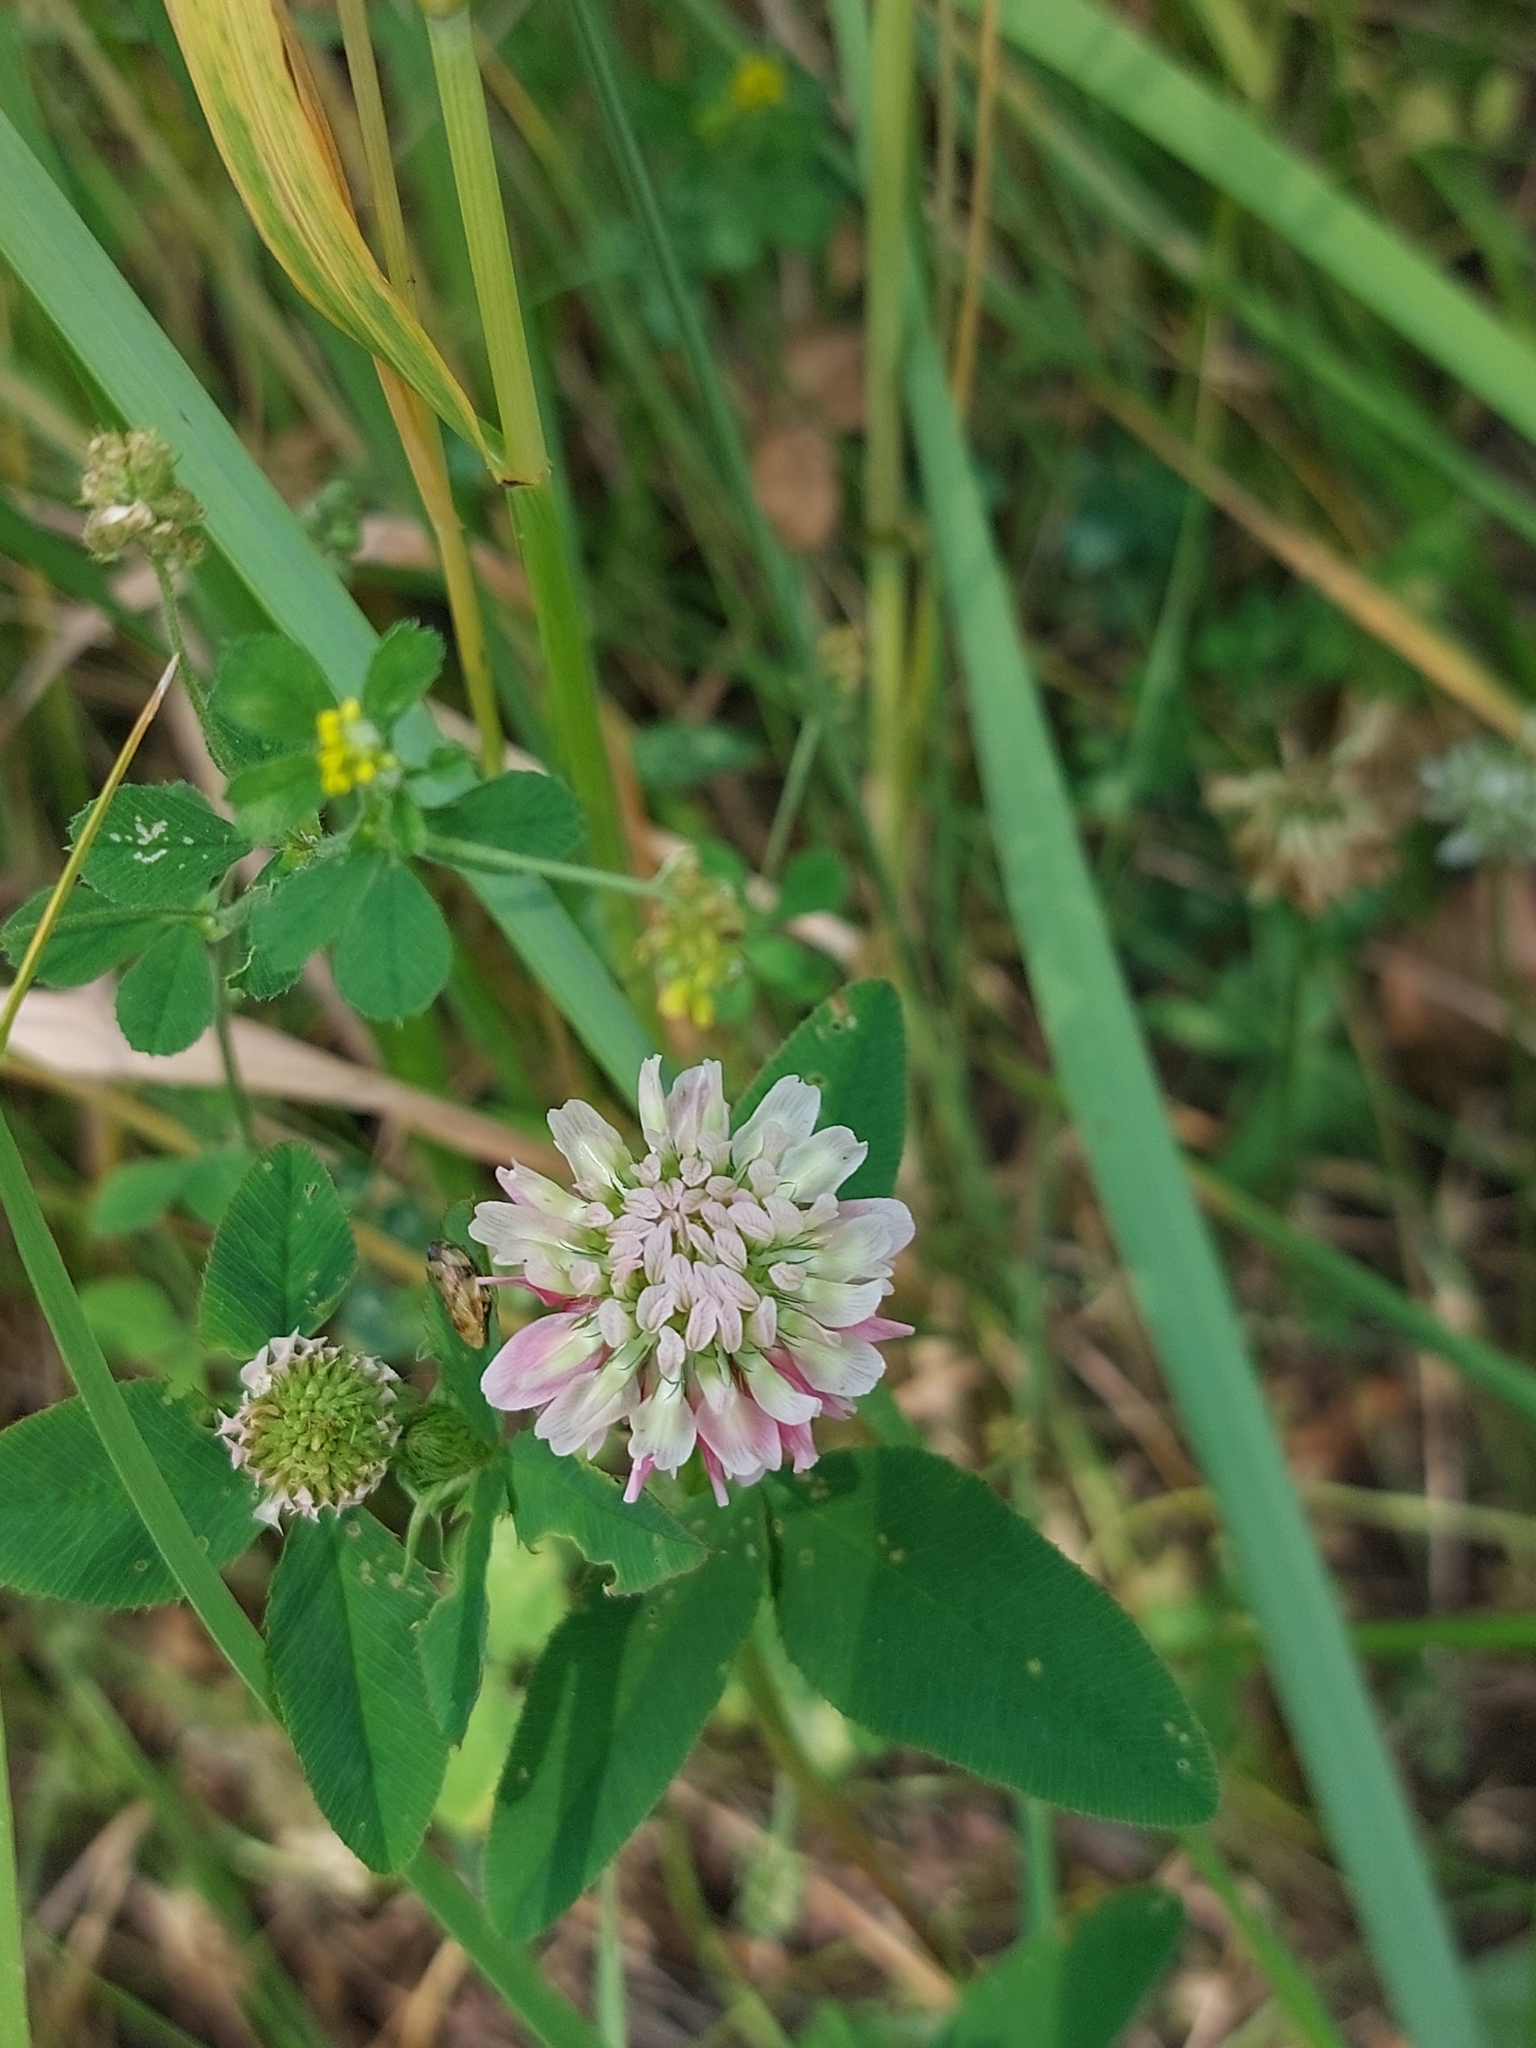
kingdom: Plantae
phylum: Tracheophyta
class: Magnoliopsida
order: Fabales
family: Fabaceae
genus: Trifolium
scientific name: Trifolium hybridum
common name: Alsike clover
